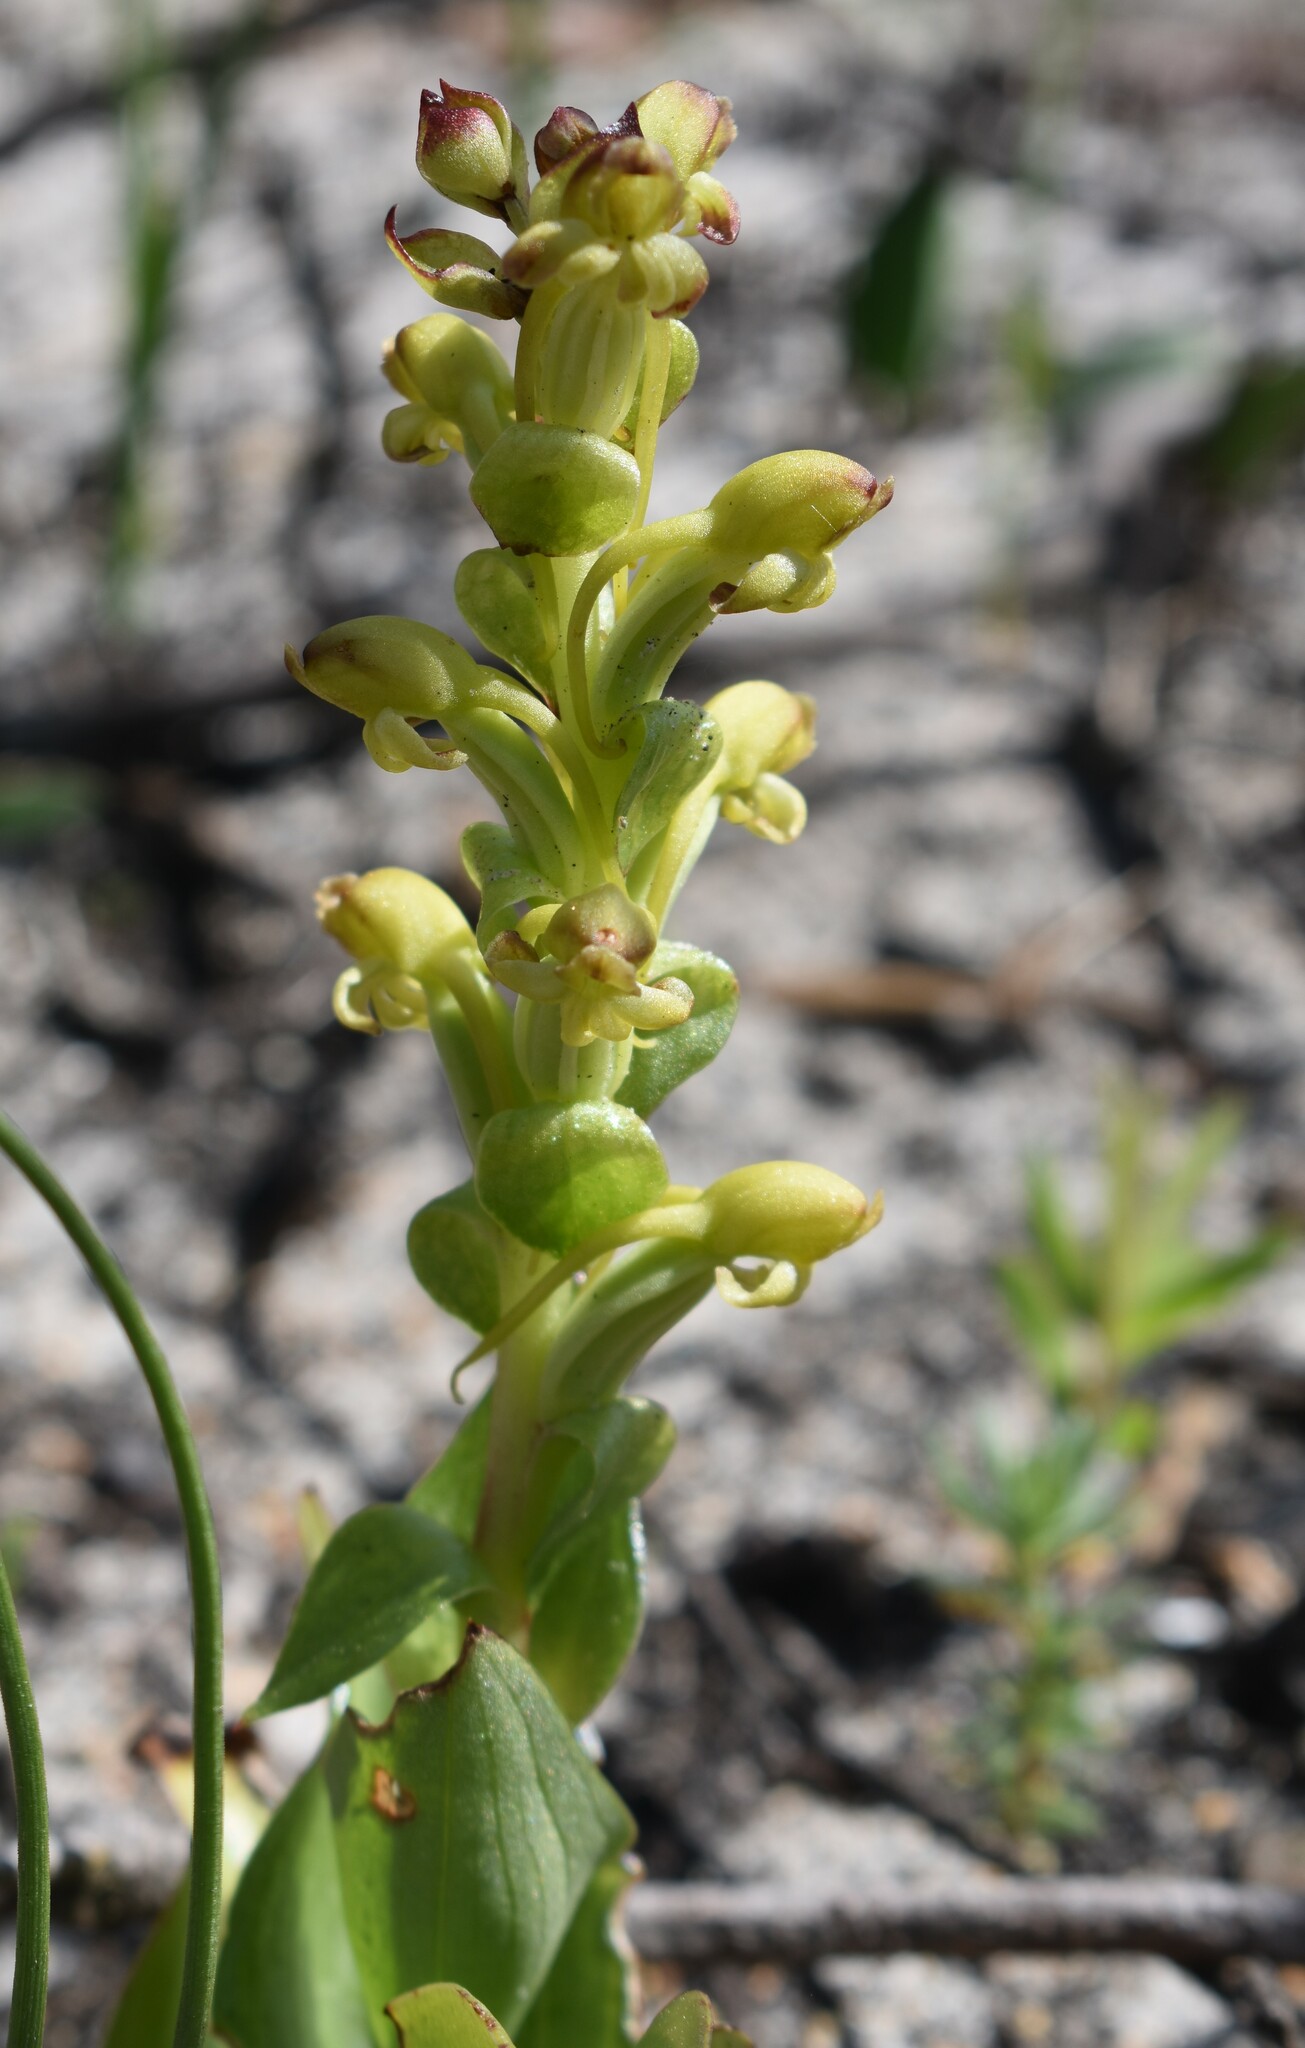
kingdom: Plantae
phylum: Tracheophyta
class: Liliopsida
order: Asparagales
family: Orchidaceae
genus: Satyrium
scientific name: Satyrium odorum
